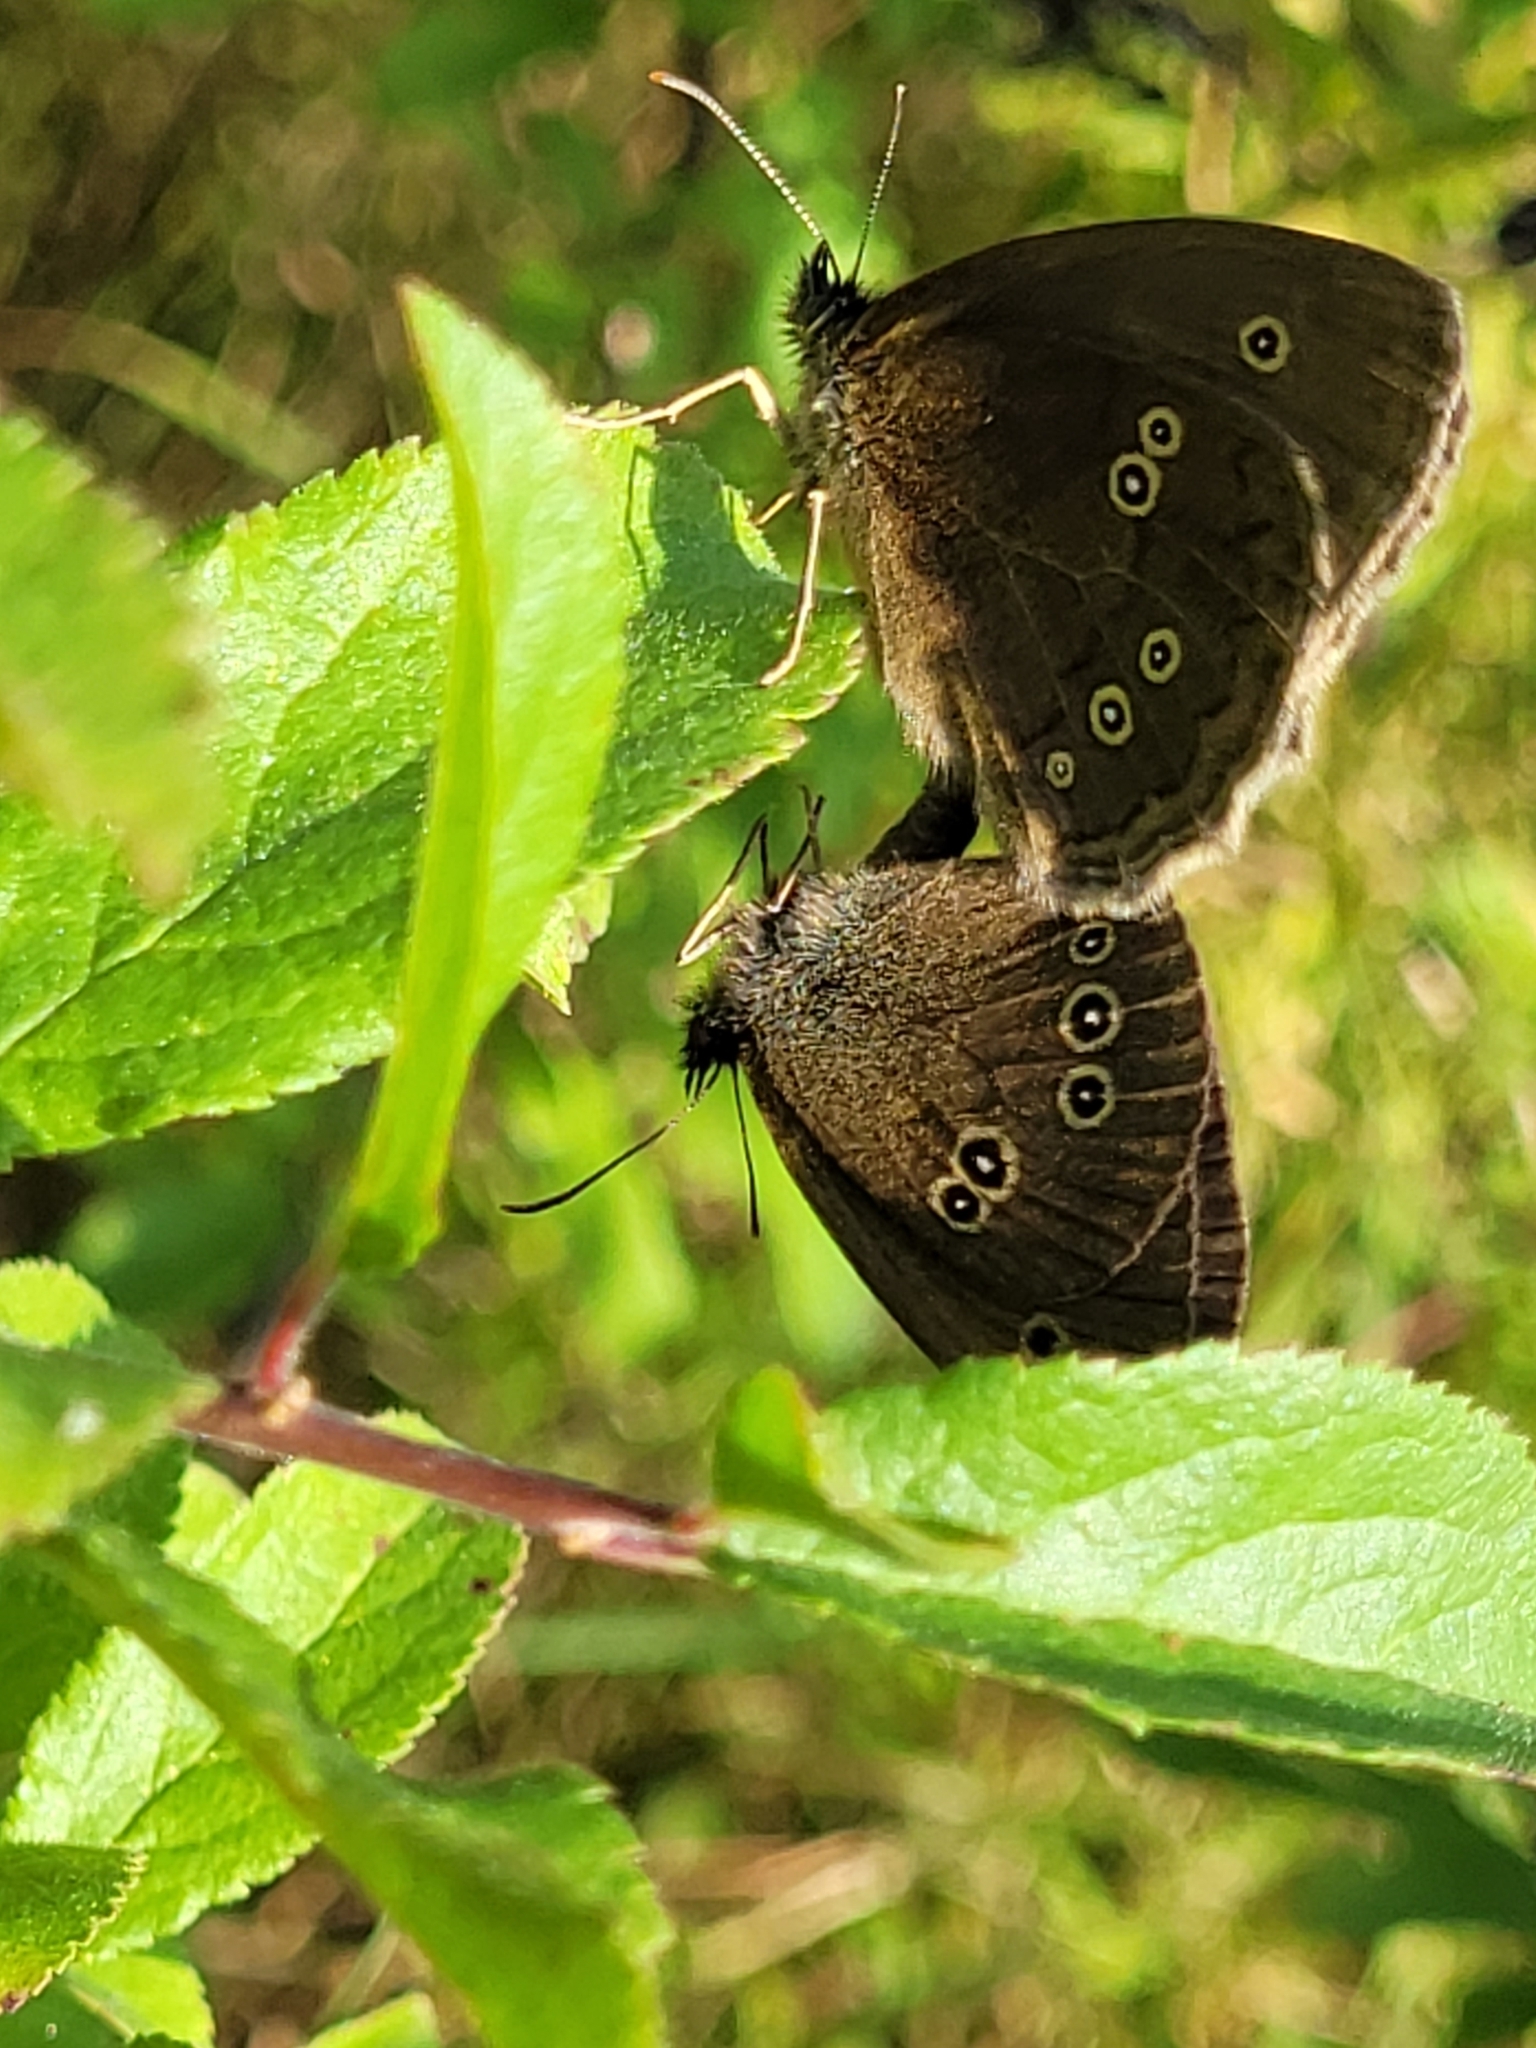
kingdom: Animalia
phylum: Arthropoda
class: Insecta
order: Lepidoptera
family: Nymphalidae
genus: Aphantopus
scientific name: Aphantopus hyperantus
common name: Ringlet
